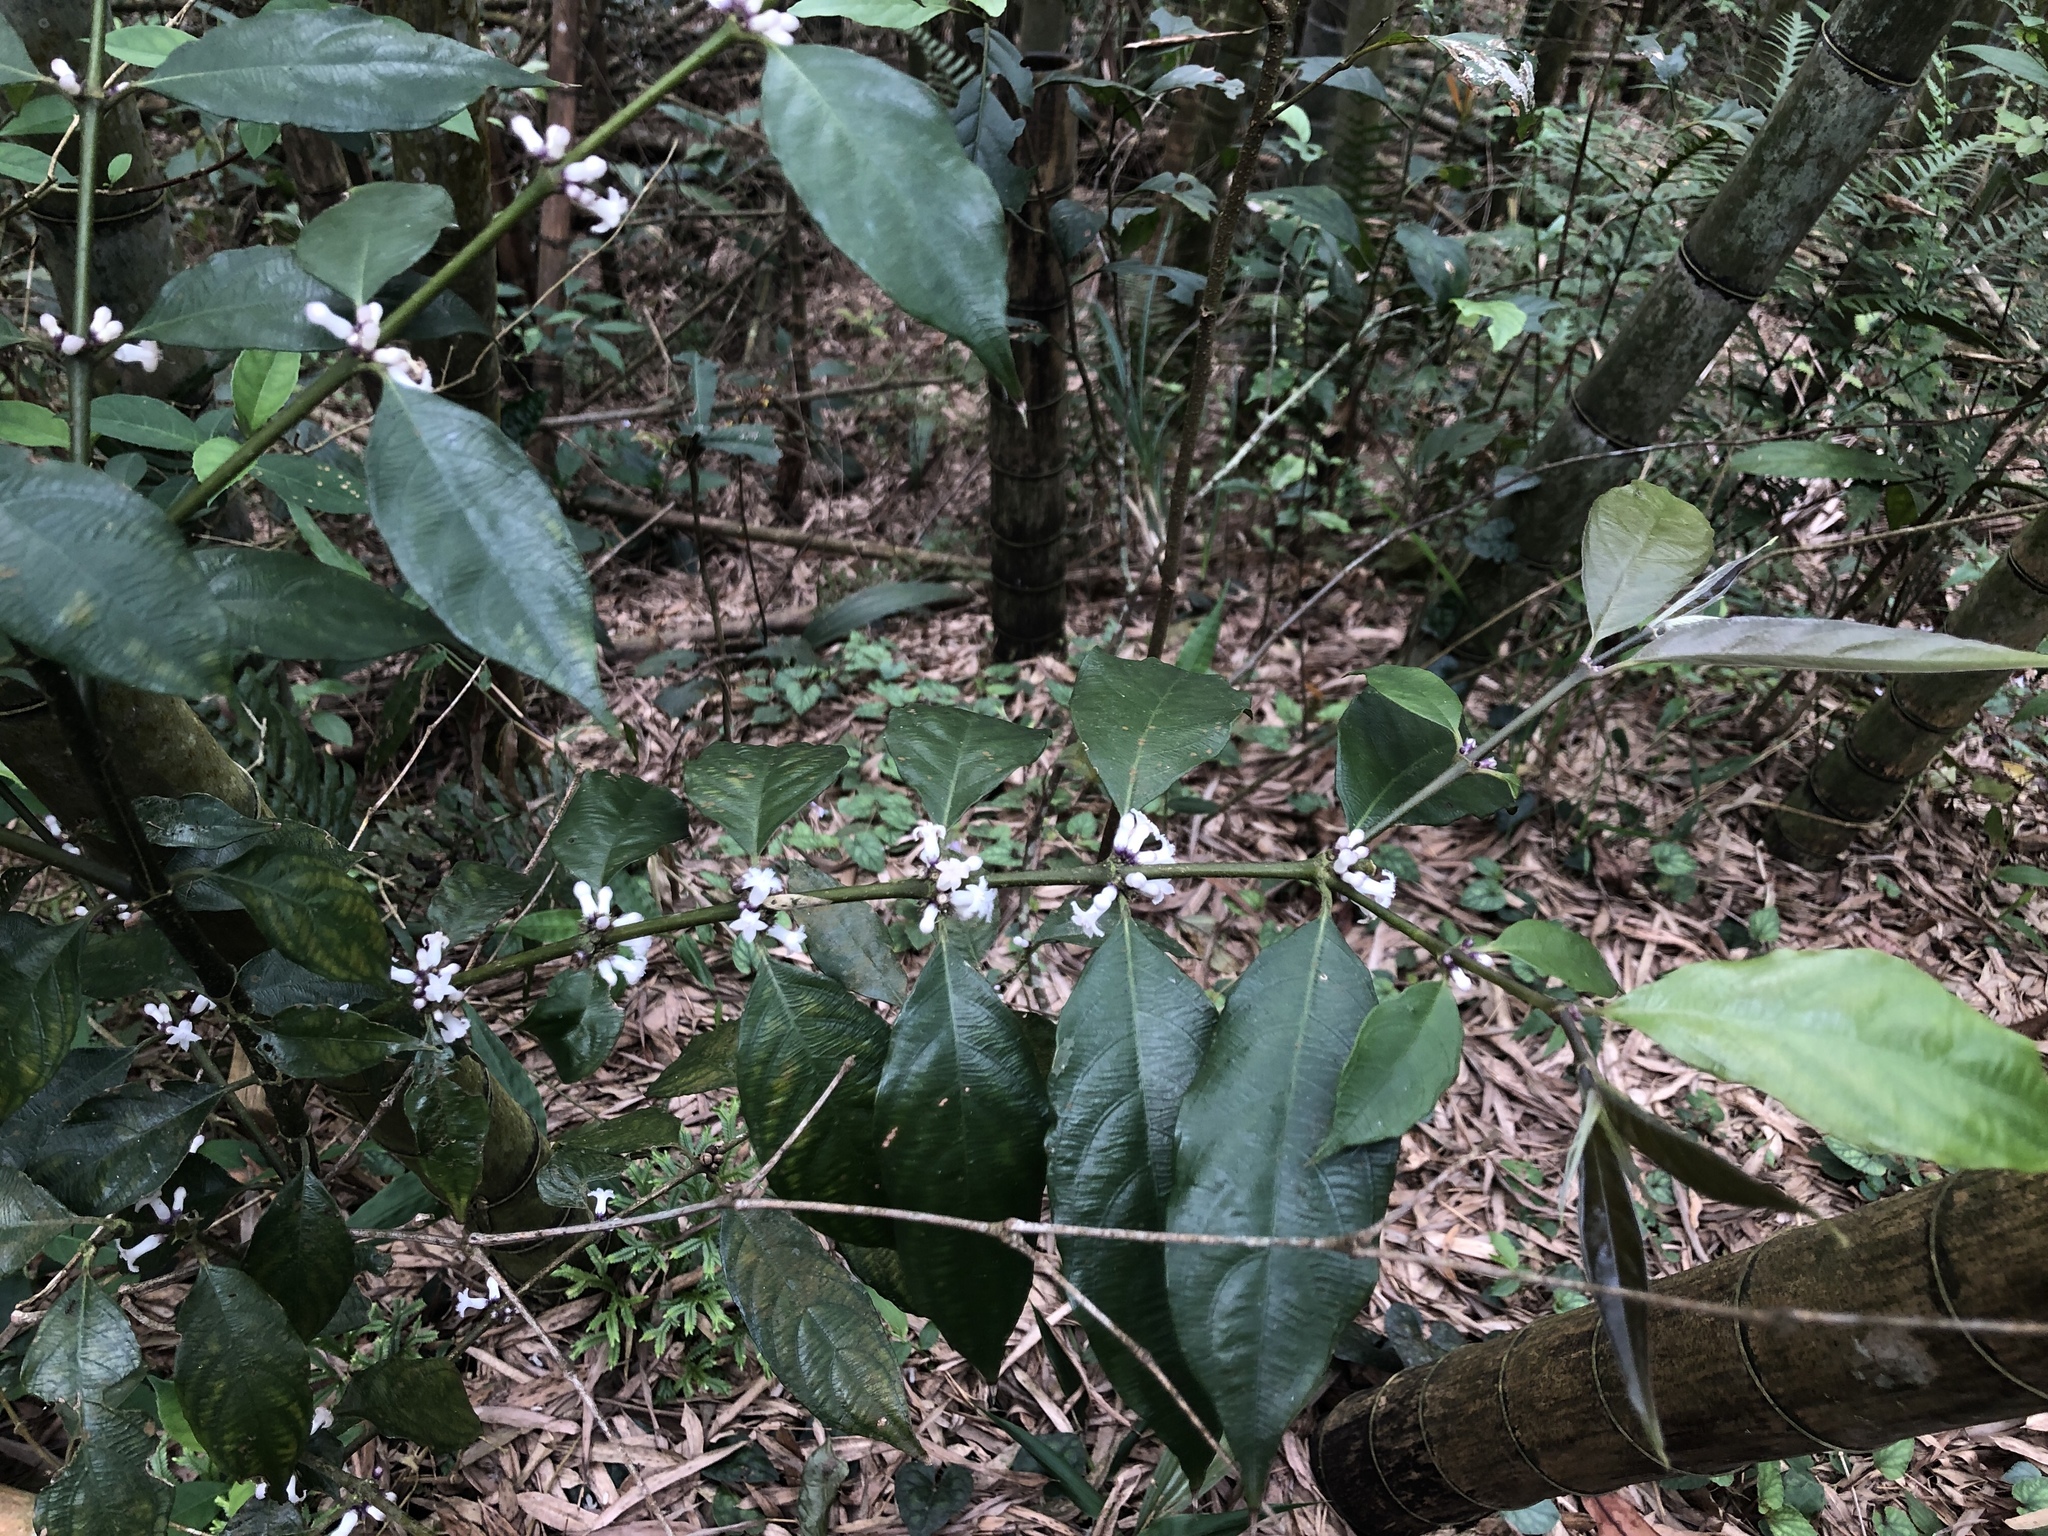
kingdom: Plantae
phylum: Tracheophyta
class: Magnoliopsida
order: Gentianales
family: Rubiaceae
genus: Lasianthus
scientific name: Lasianthus fordii
